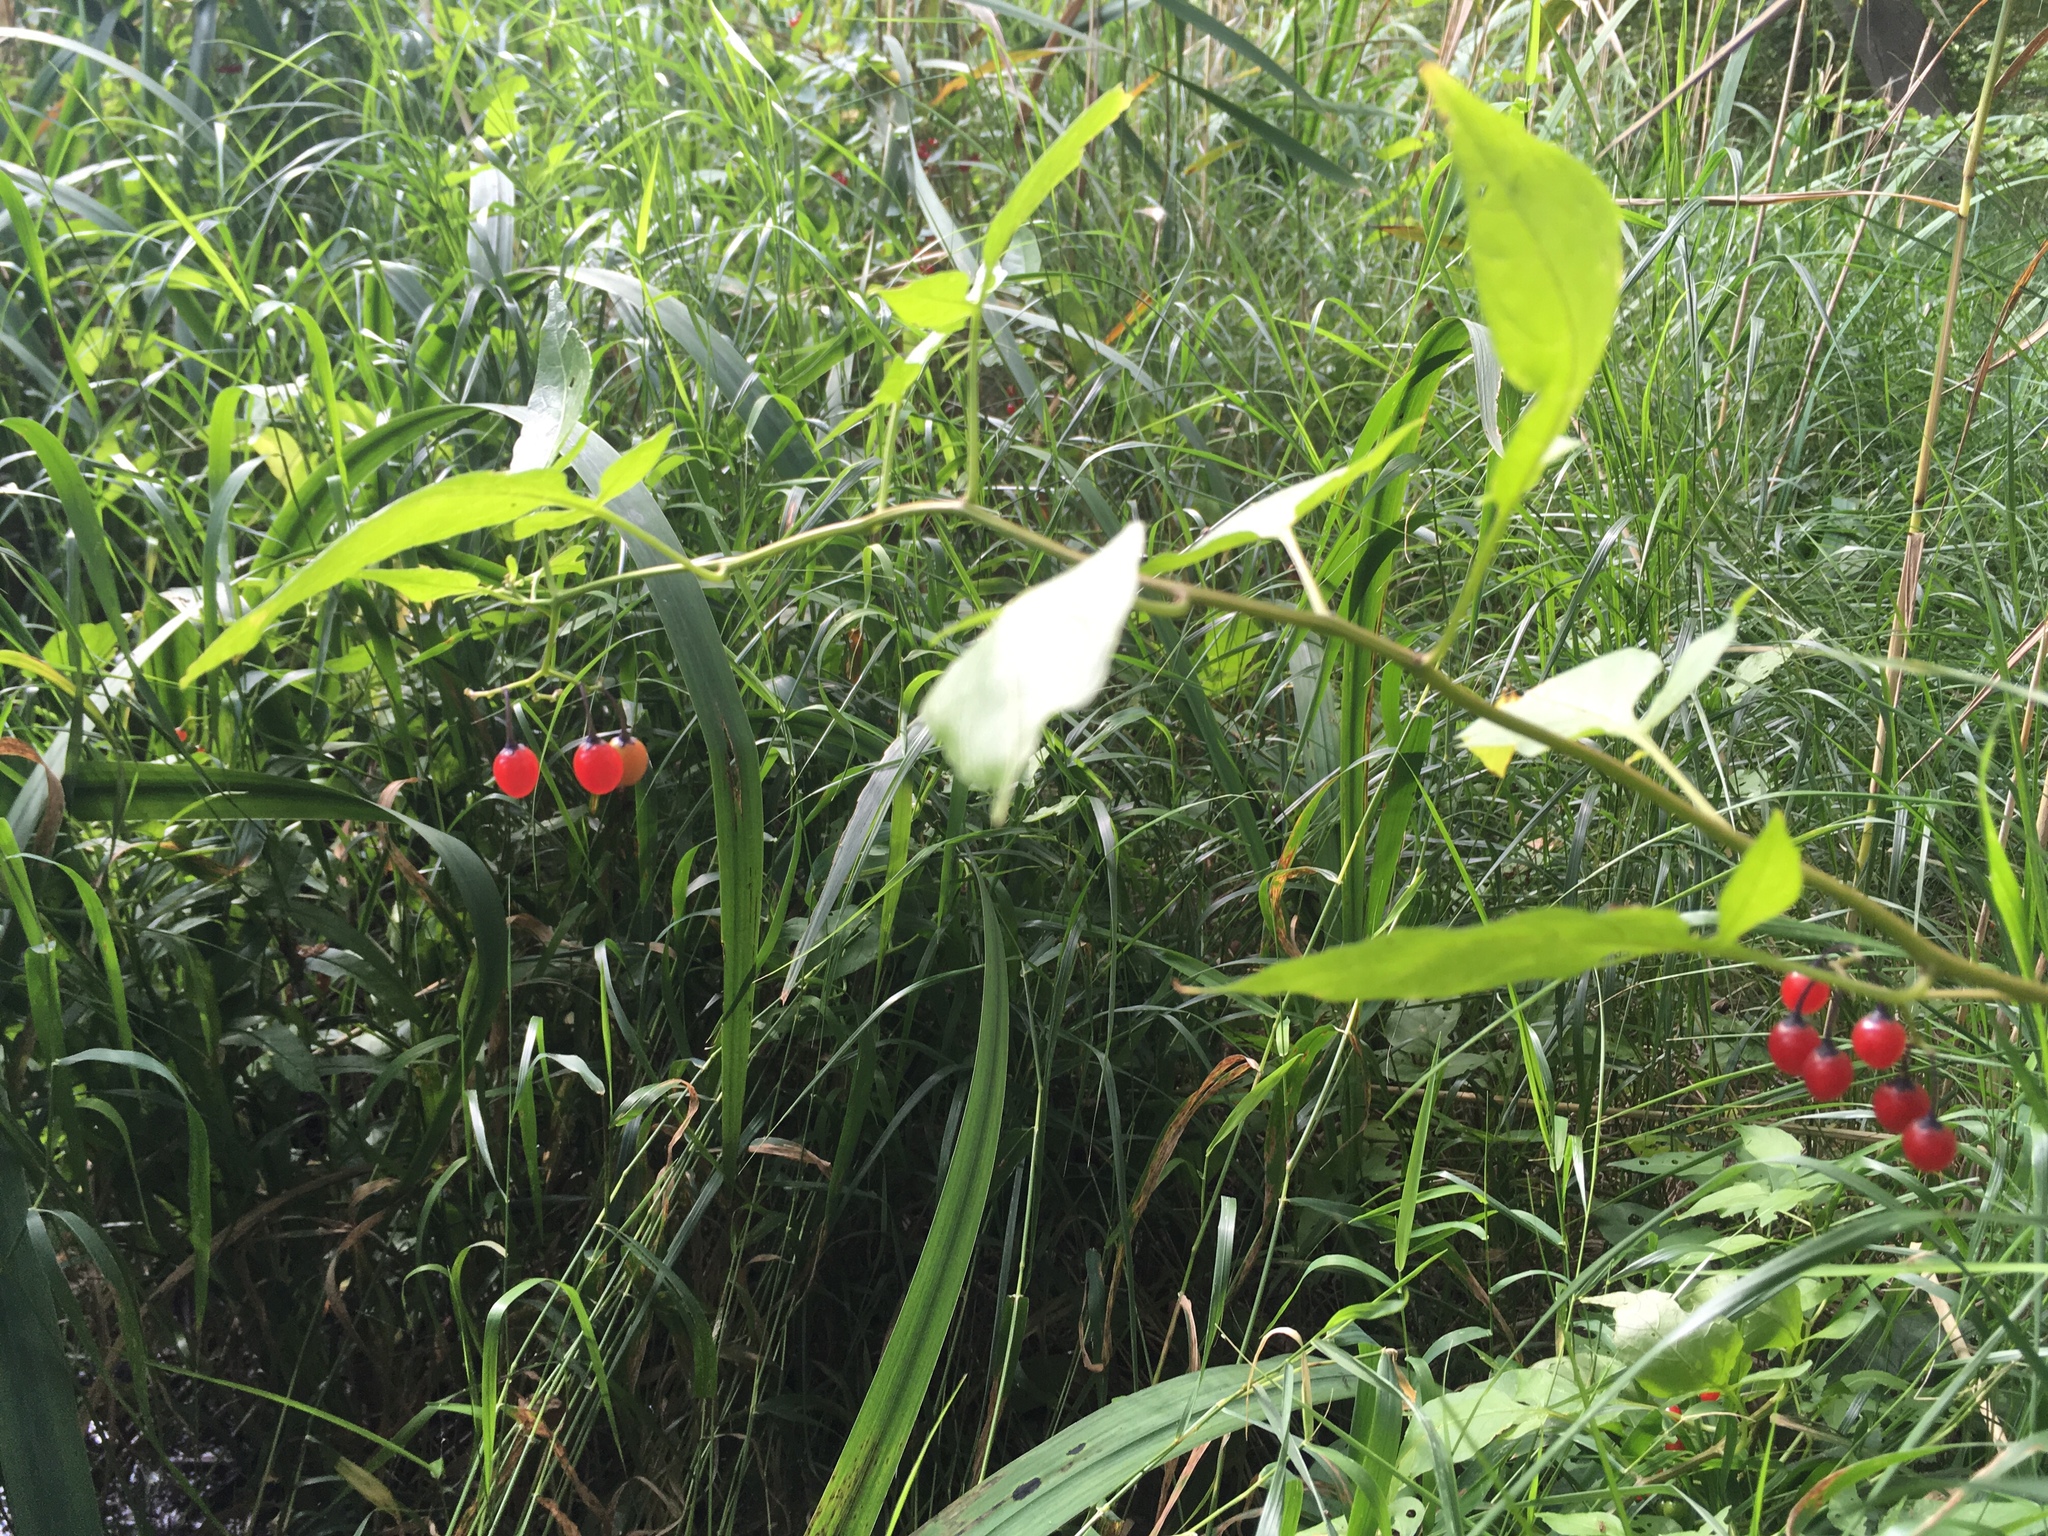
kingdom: Plantae
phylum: Tracheophyta
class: Magnoliopsida
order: Solanales
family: Solanaceae
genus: Solanum
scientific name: Solanum dulcamara
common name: Climbing nightshade
